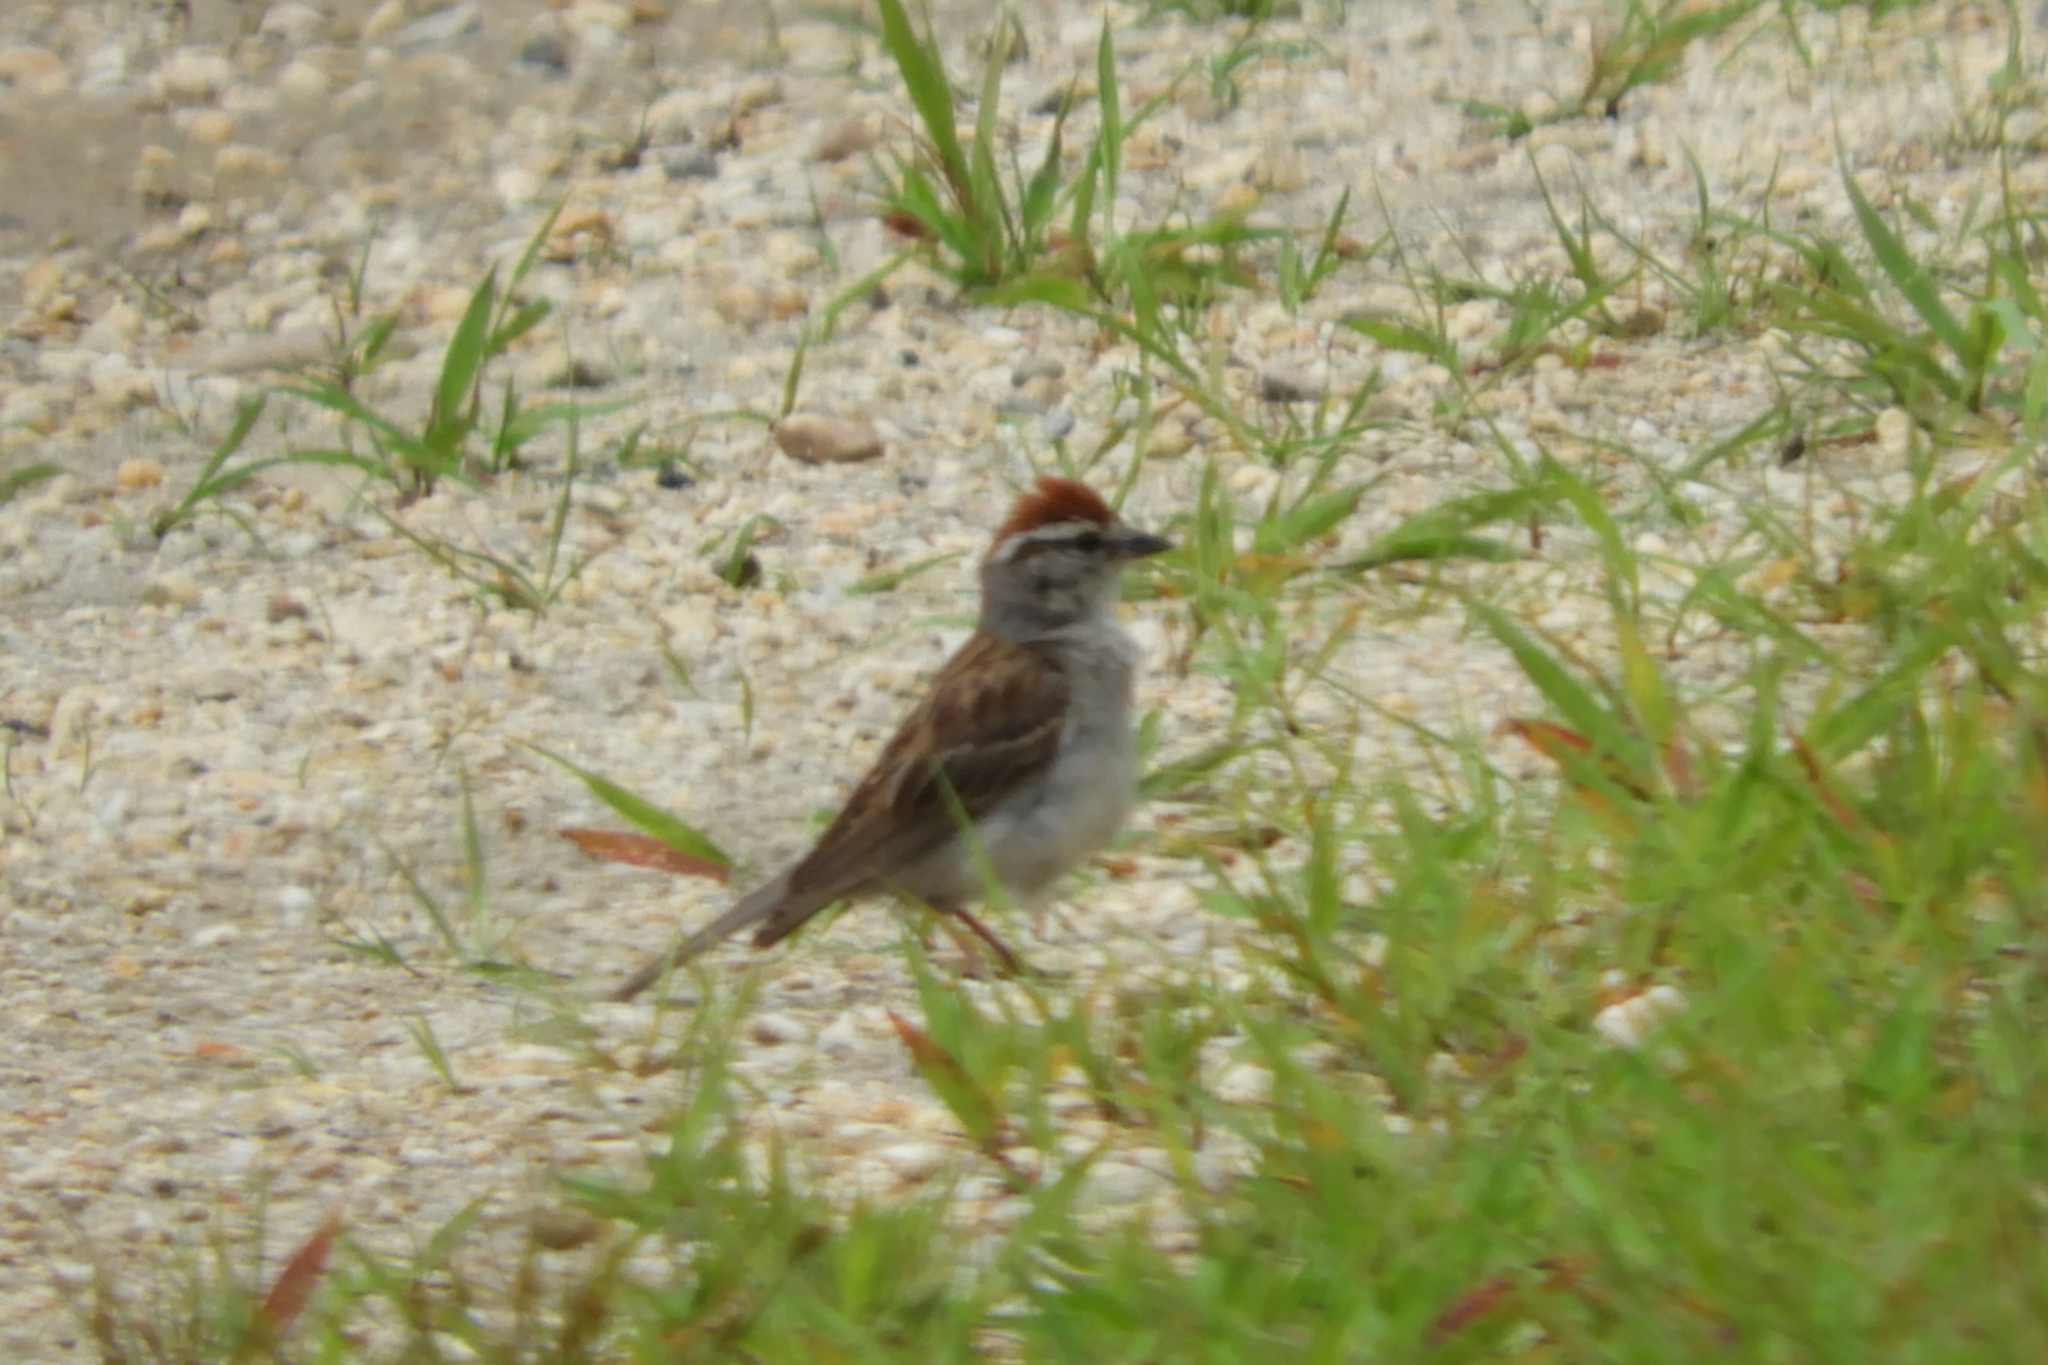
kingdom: Animalia
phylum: Chordata
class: Aves
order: Passeriformes
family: Passerellidae
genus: Spizella
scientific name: Spizella passerina
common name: Chipping sparrow
